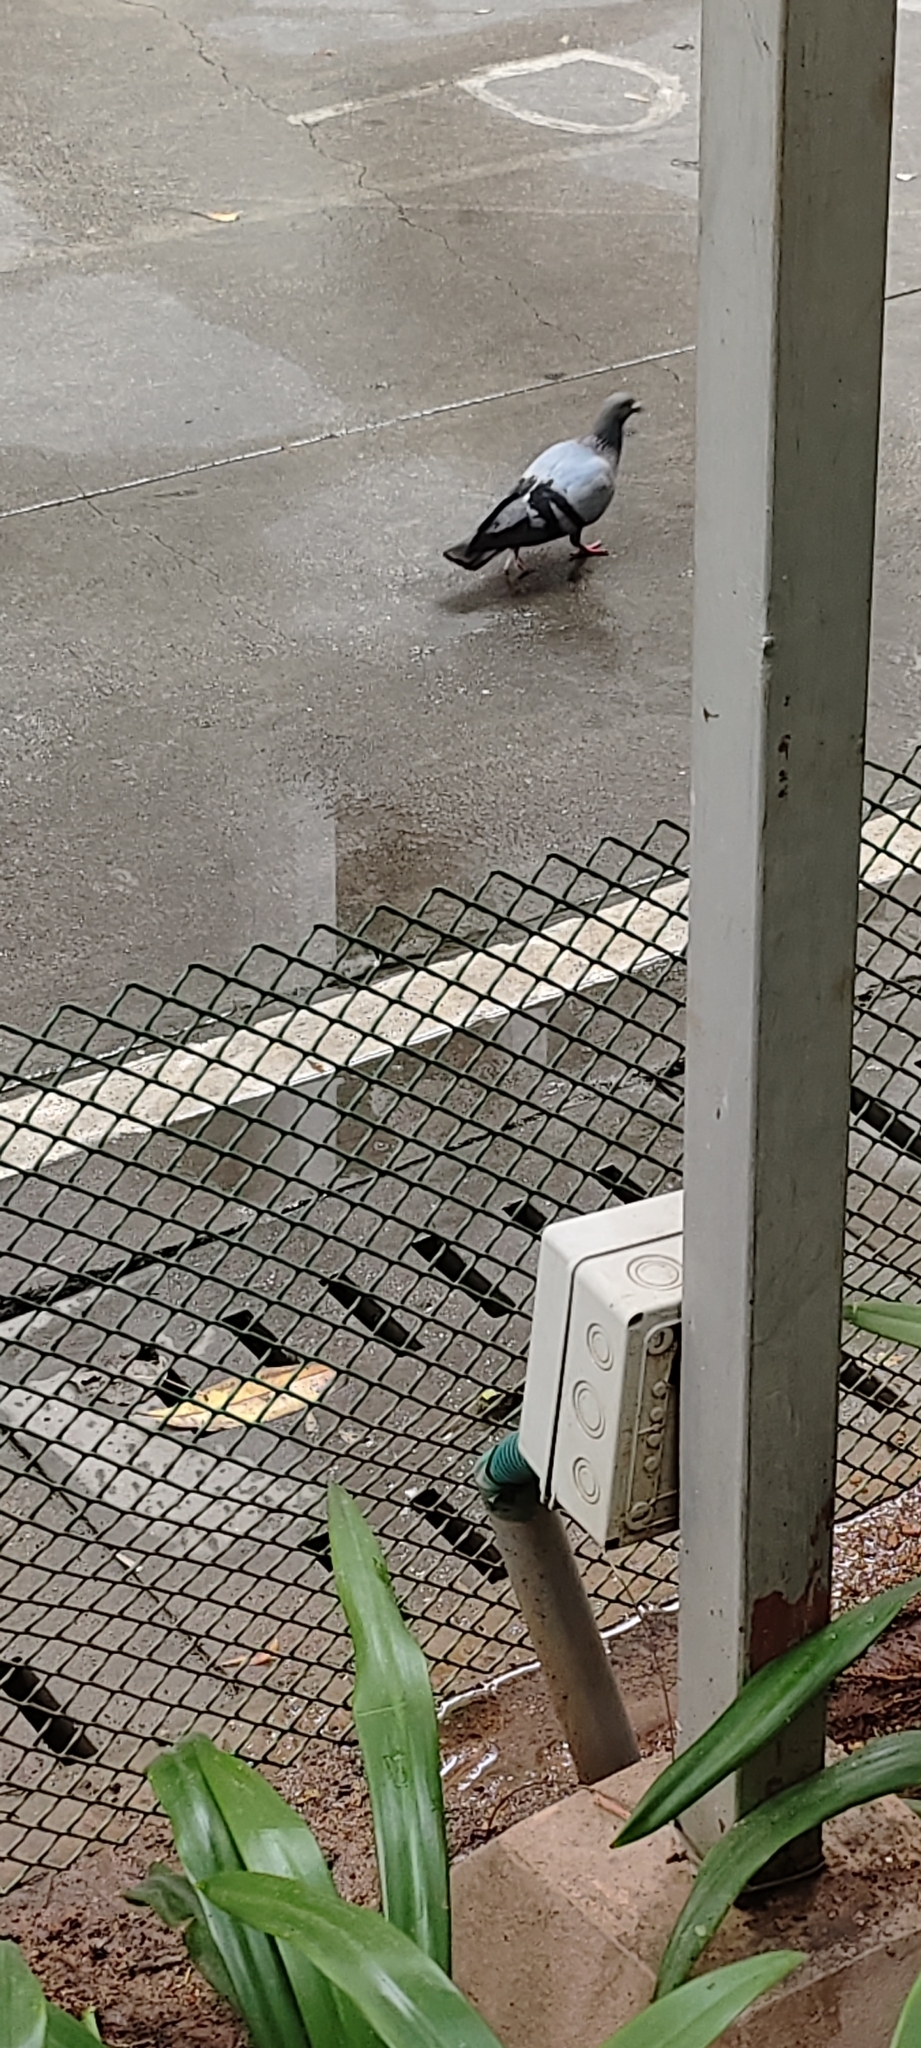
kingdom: Animalia
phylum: Chordata
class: Aves
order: Columbiformes
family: Columbidae
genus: Columba
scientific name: Columba livia
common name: Rock pigeon
